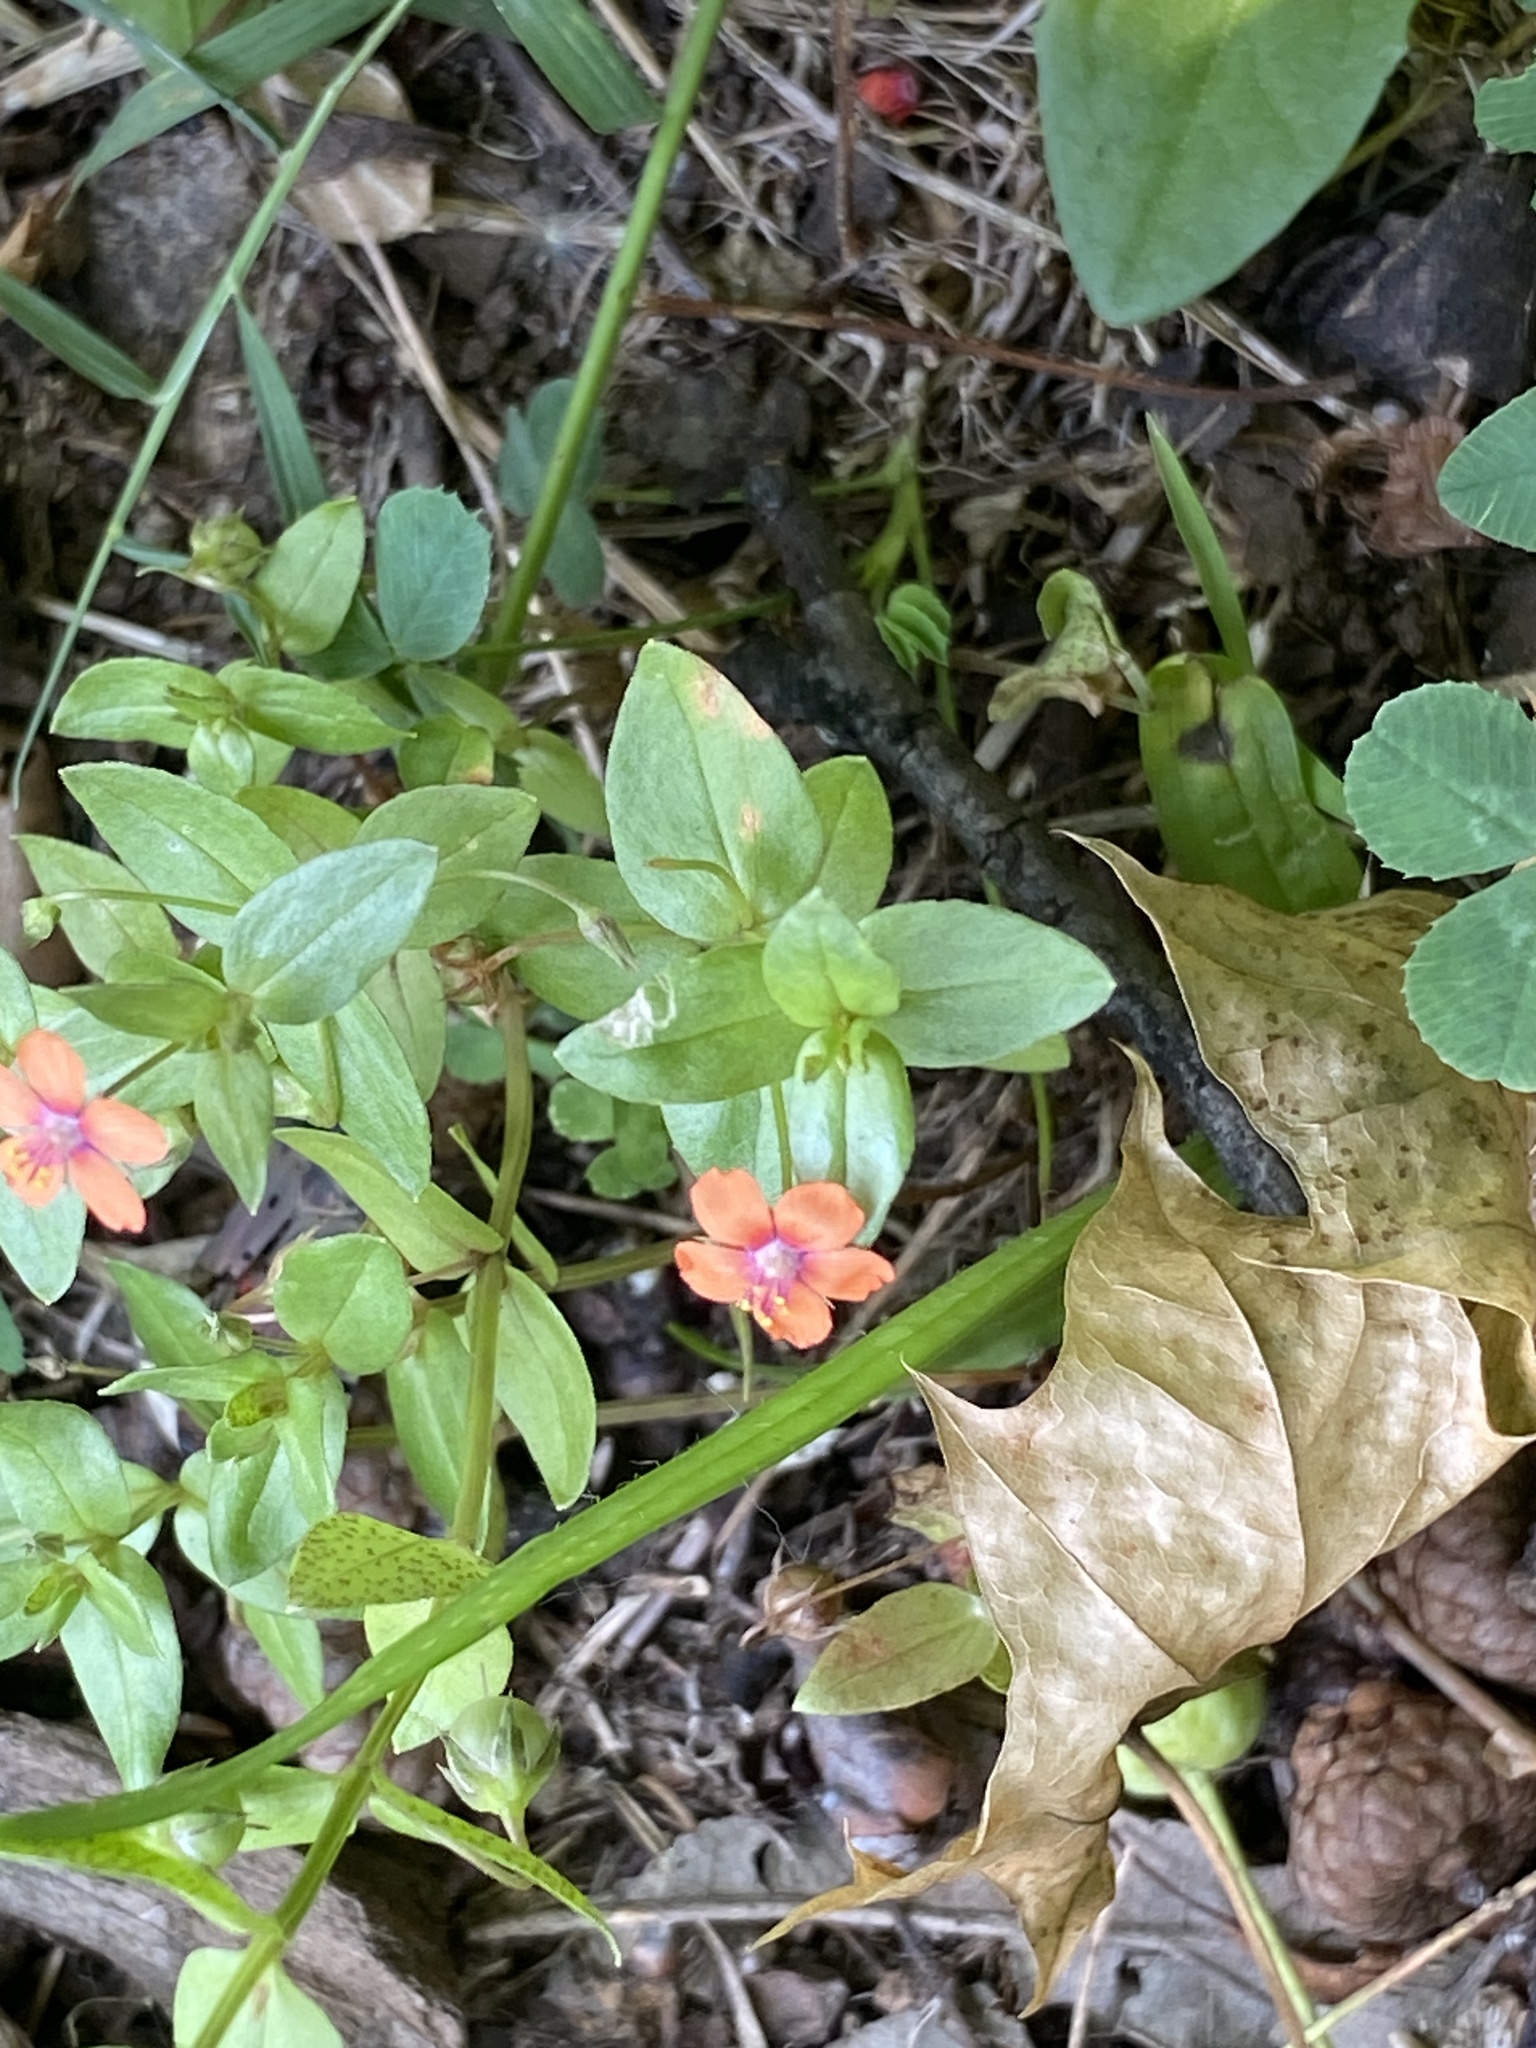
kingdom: Plantae
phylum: Tracheophyta
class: Magnoliopsida
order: Ericales
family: Primulaceae
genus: Lysimachia
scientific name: Lysimachia arvensis
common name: Scarlet pimpernel
